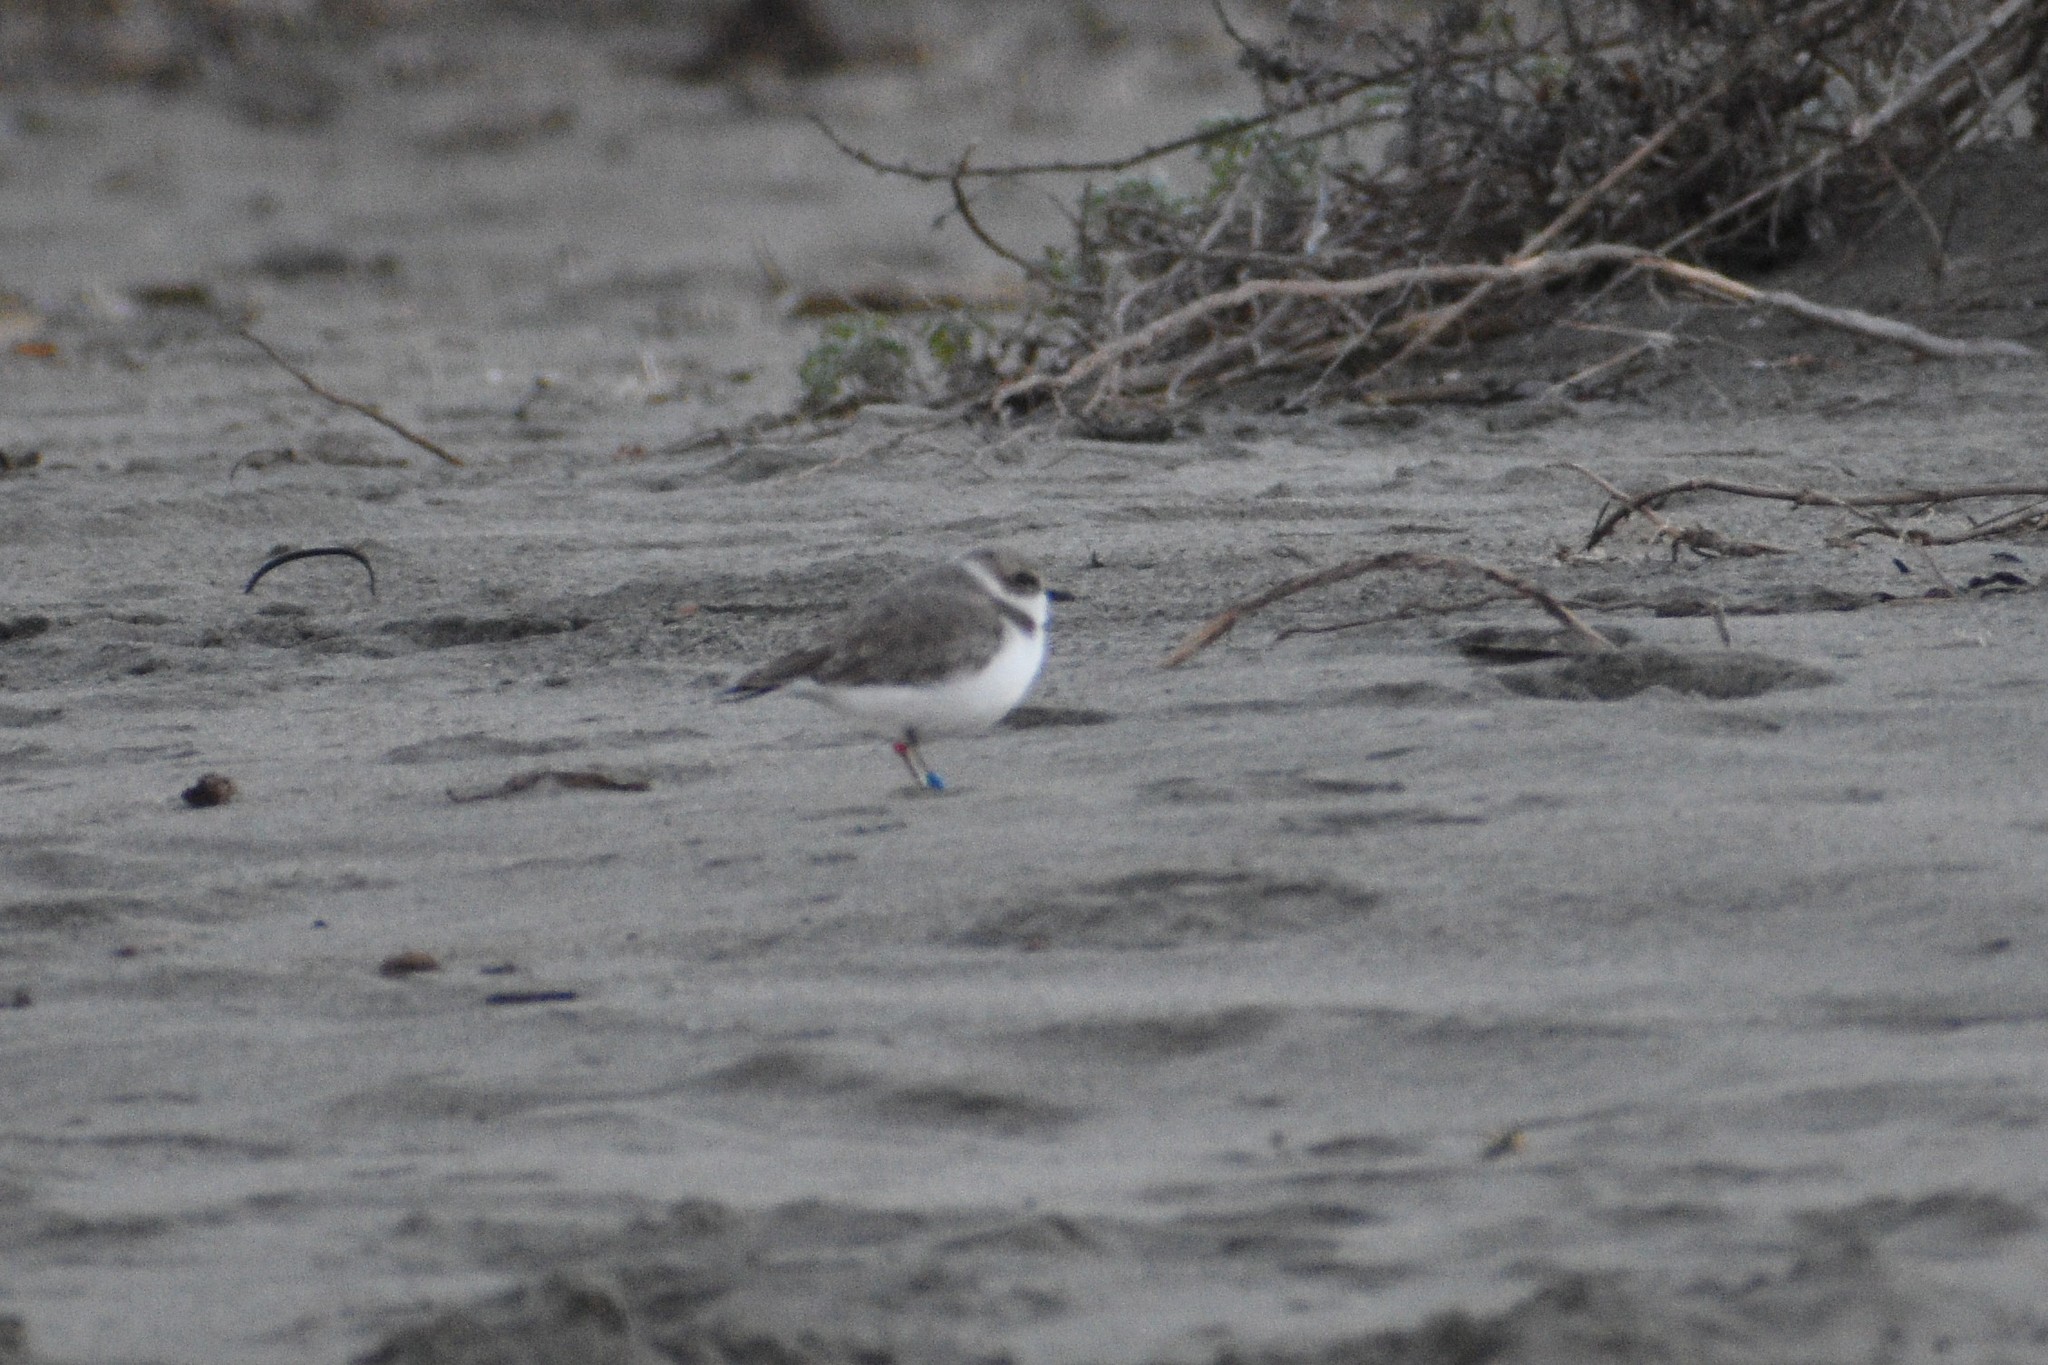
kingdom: Animalia
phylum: Chordata
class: Aves
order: Charadriiformes
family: Charadriidae
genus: Anarhynchus
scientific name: Anarhynchus
